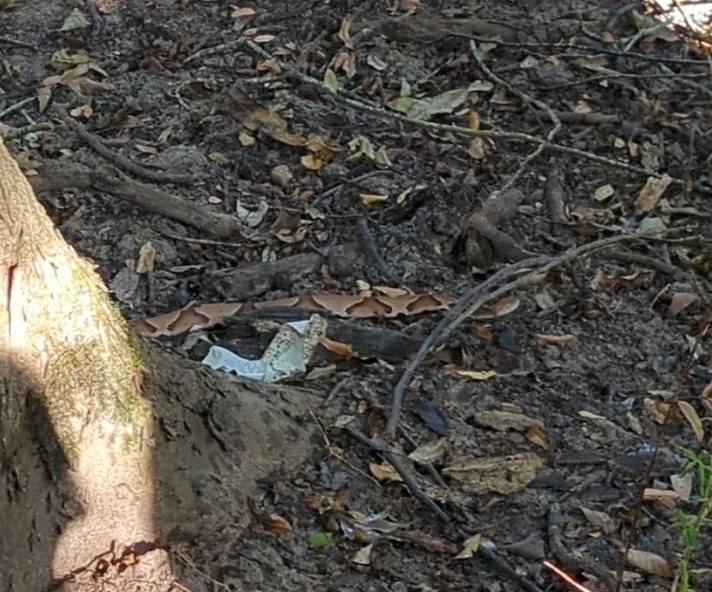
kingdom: Animalia
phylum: Chordata
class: Squamata
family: Viperidae
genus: Agkistrodon
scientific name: Agkistrodon contortrix
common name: Northern copperhead
